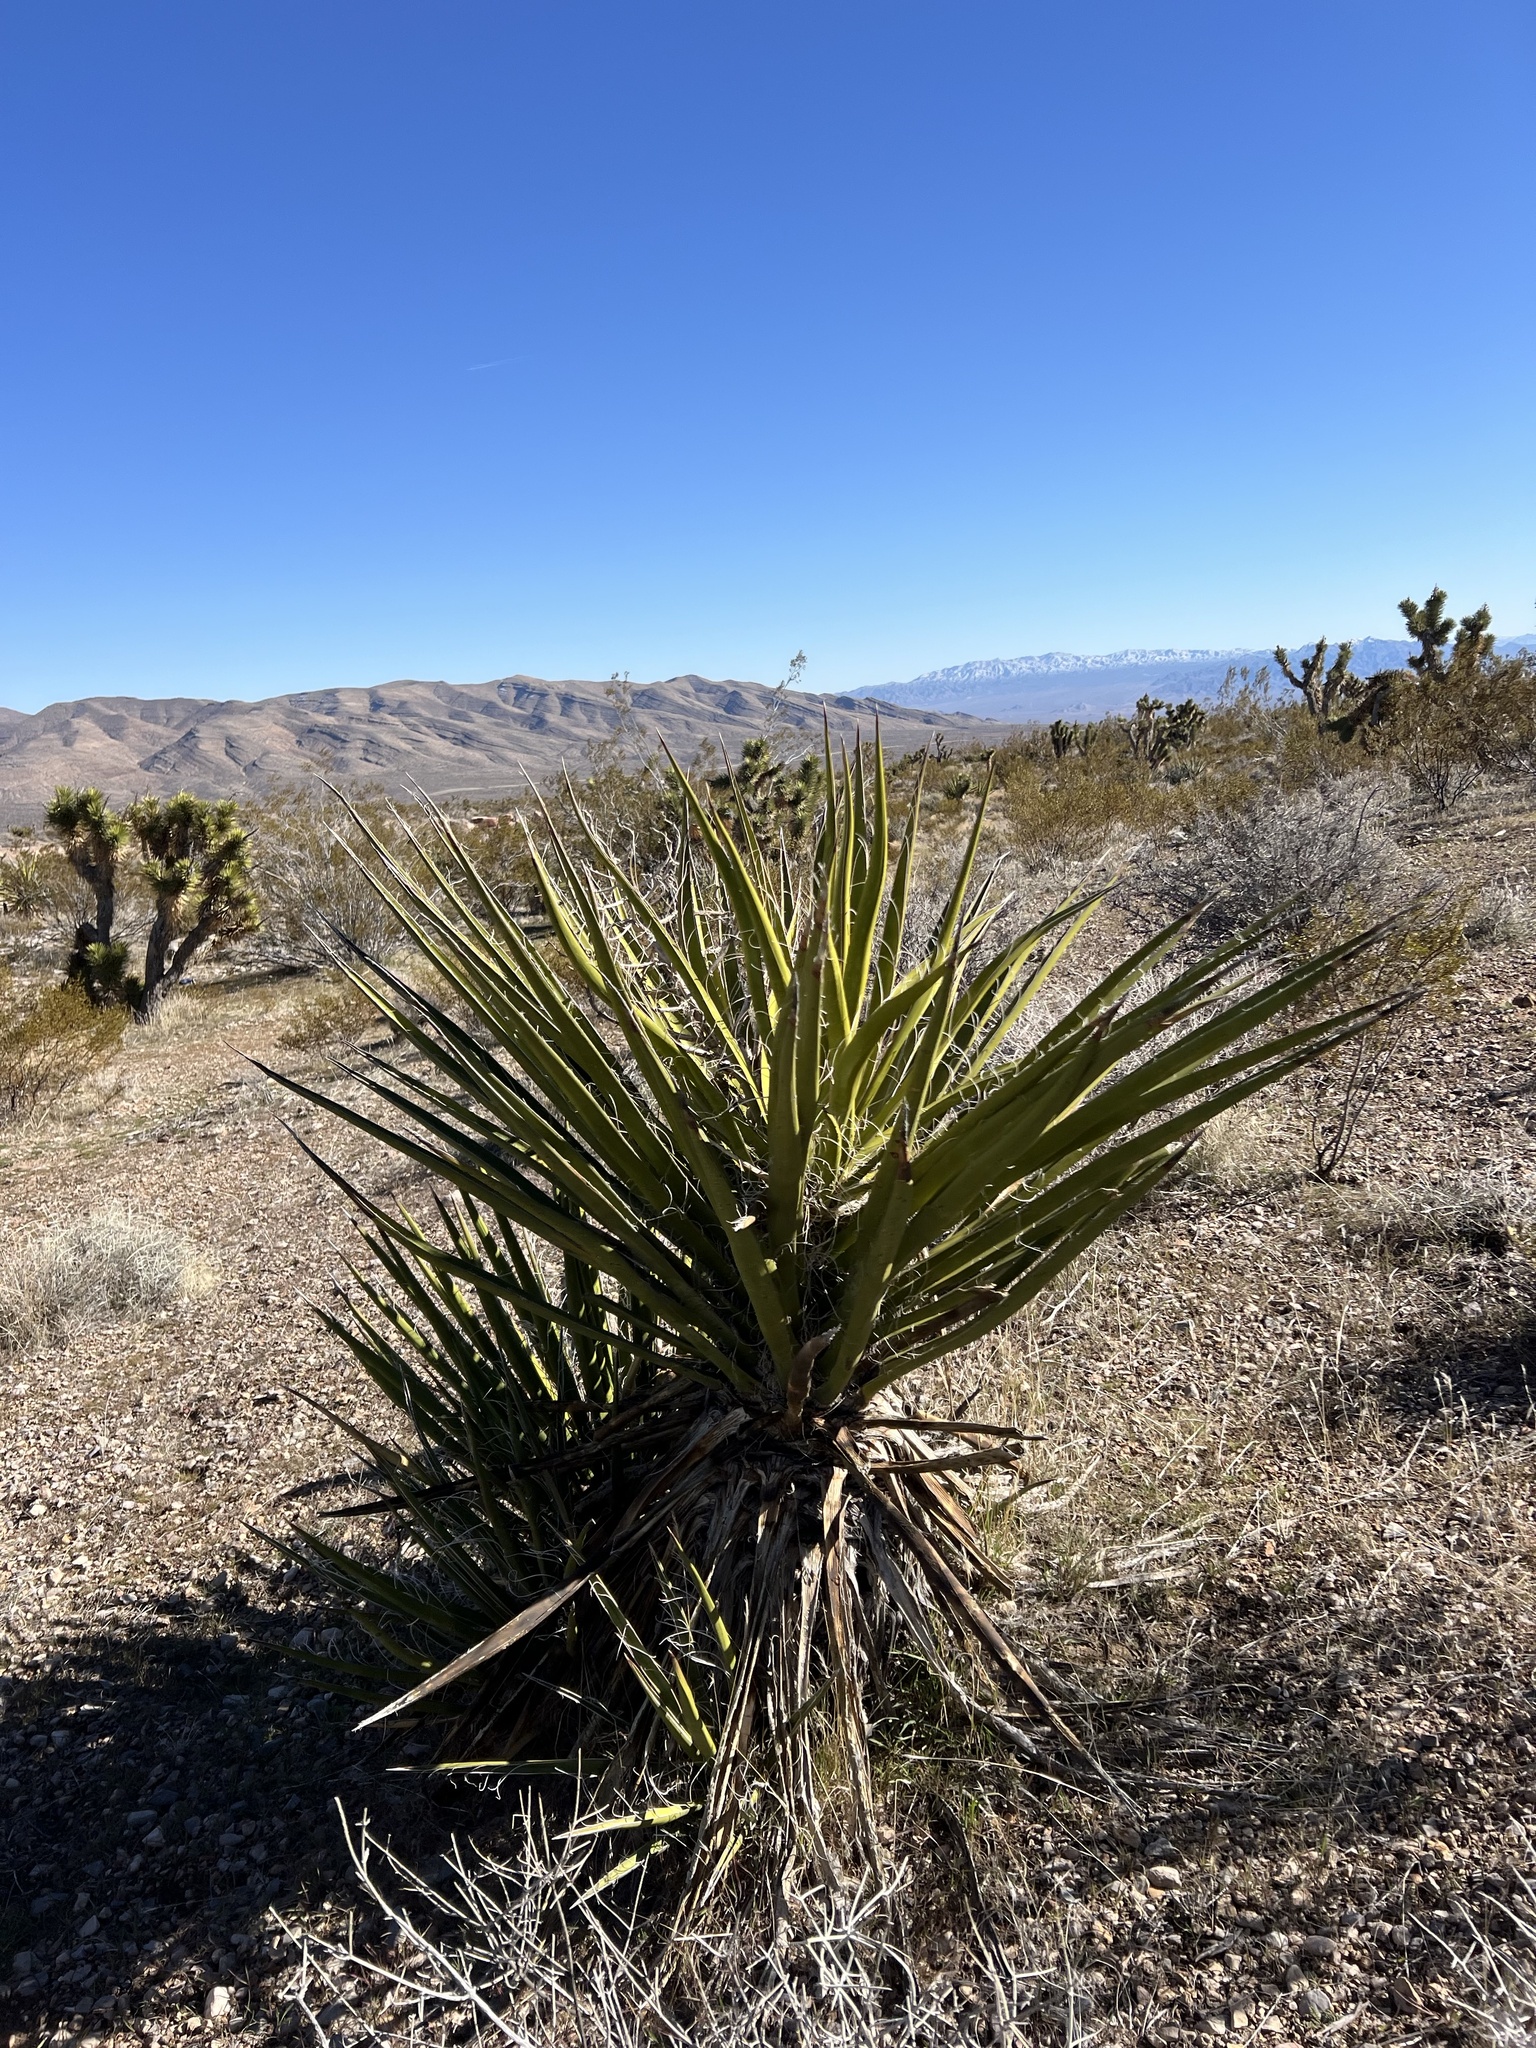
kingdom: Plantae
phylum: Tracheophyta
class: Liliopsida
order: Asparagales
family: Asparagaceae
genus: Yucca
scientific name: Yucca schidigera
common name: Mojave yucca
